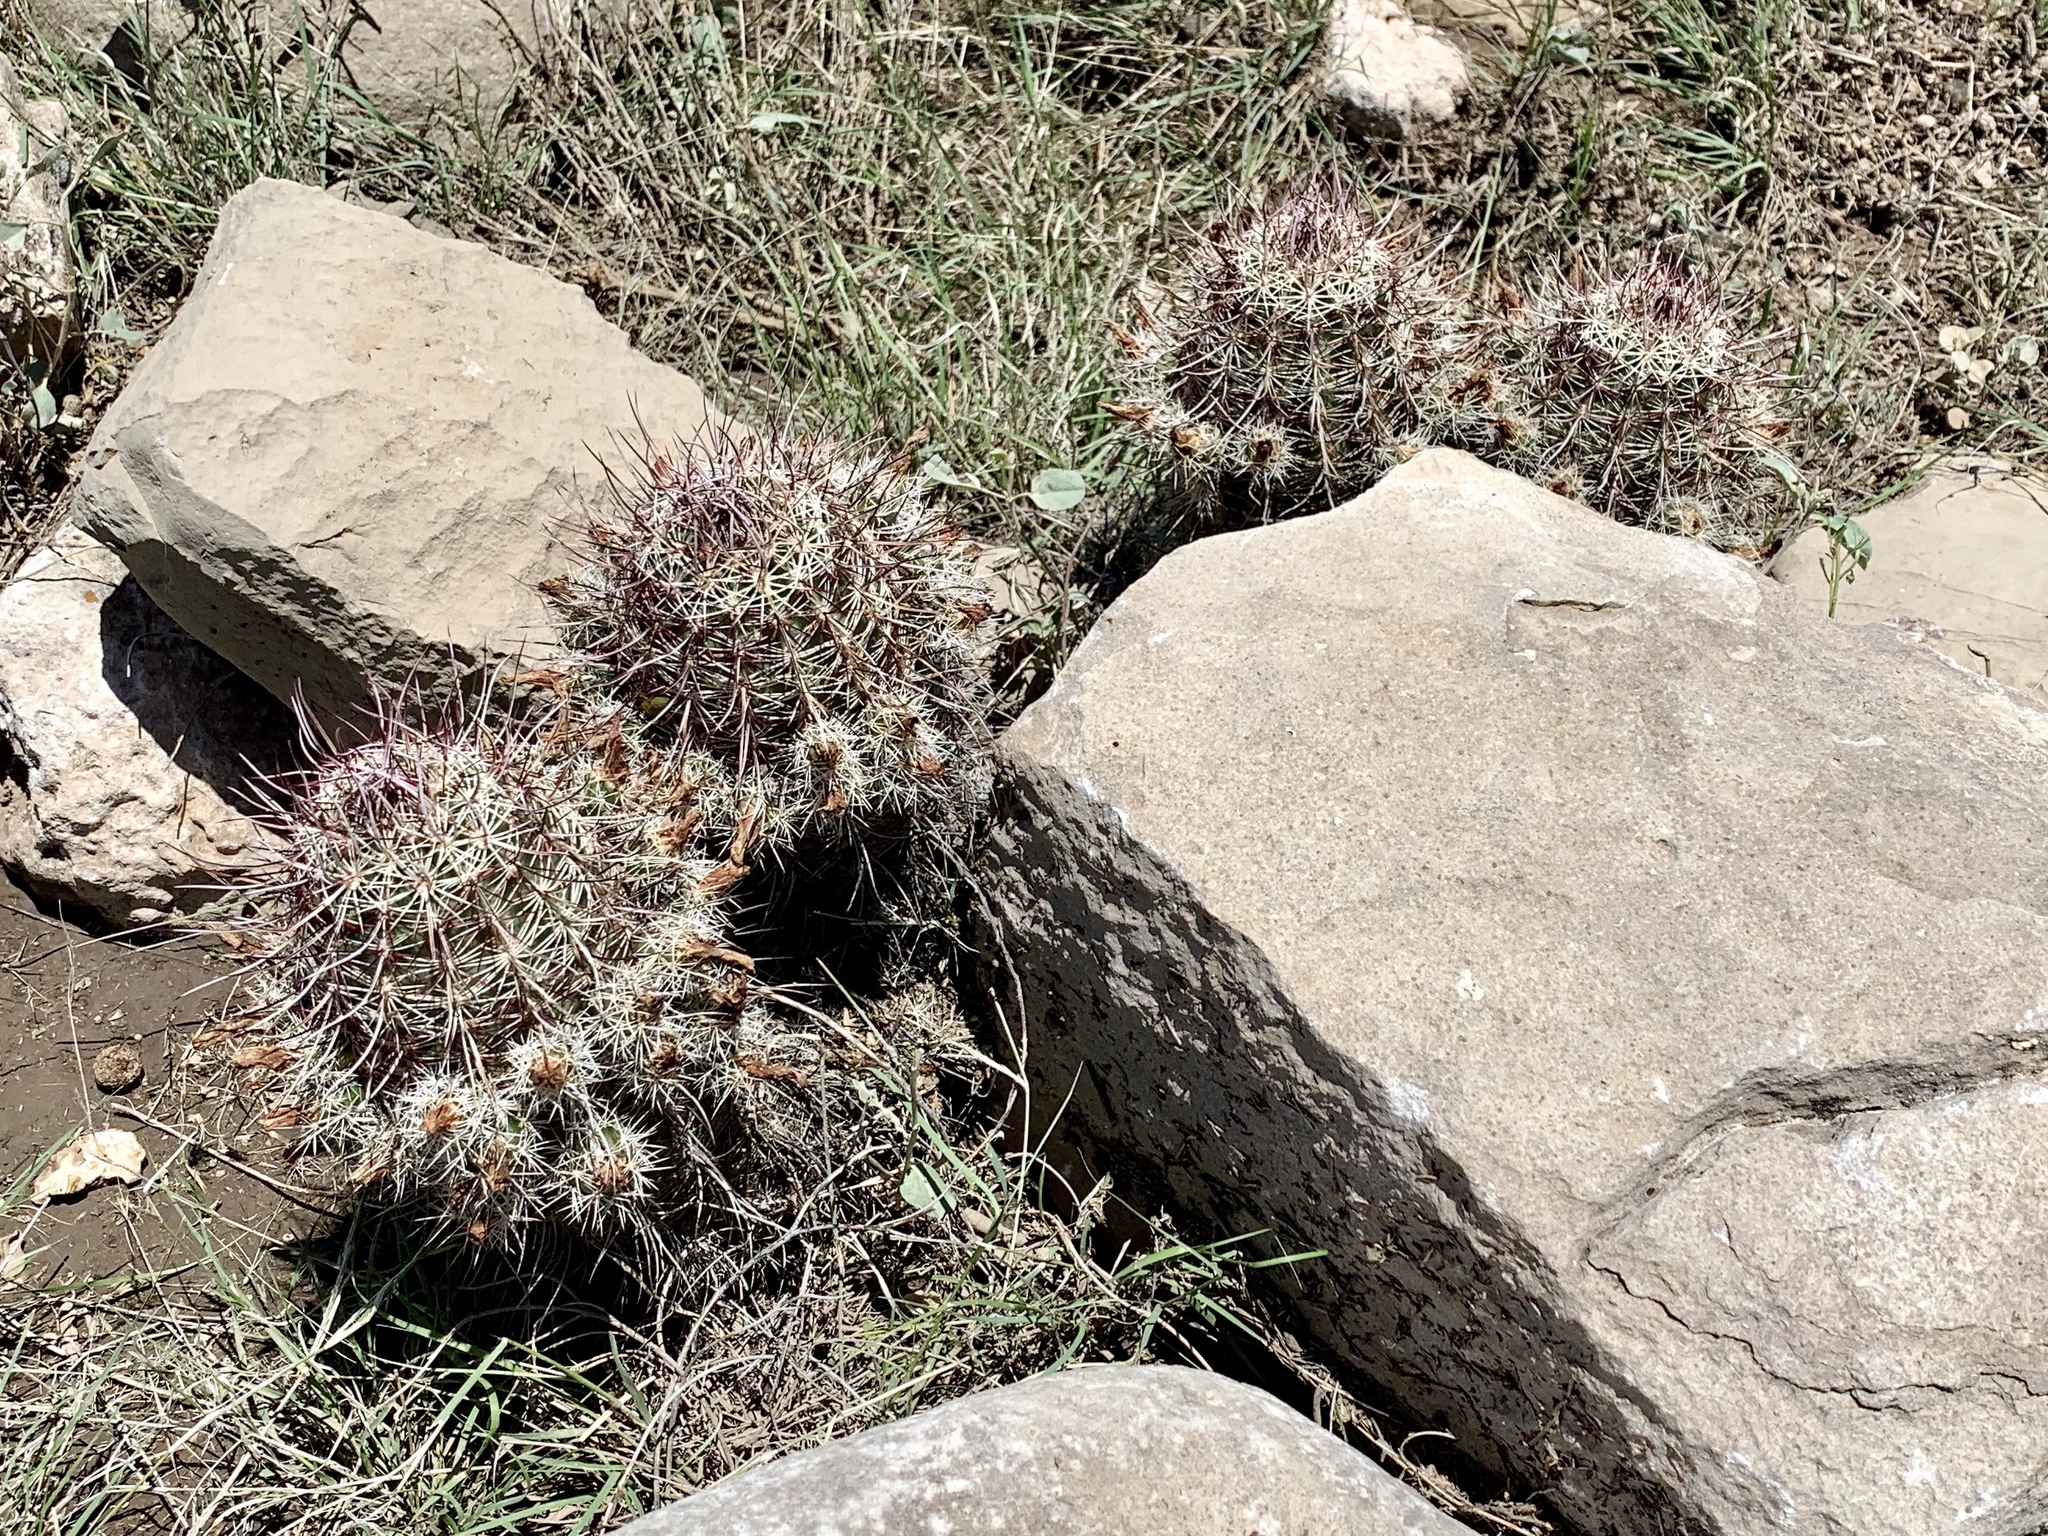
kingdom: Plantae
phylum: Tracheophyta
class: Magnoliopsida
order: Caryophyllales
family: Cactaceae
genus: Echinocereus
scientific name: Echinocereus viridiflorus
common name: Nylon hedgehog cactus
